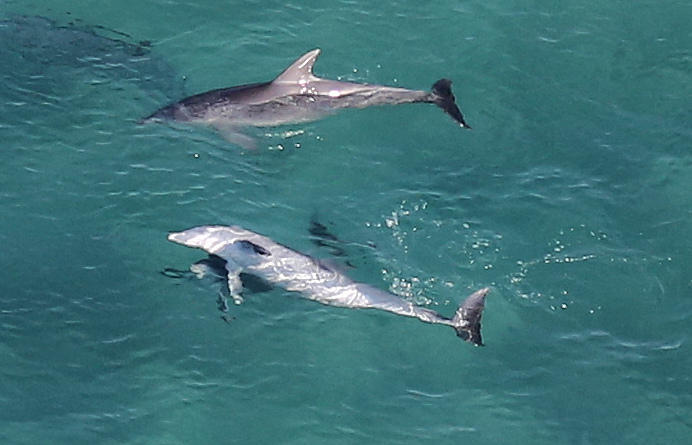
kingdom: Animalia
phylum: Chordata
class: Mammalia
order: Cetacea
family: Delphinidae
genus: Tursiops
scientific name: Tursiops aduncus
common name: Indo-pacific bottlenose dolphin
